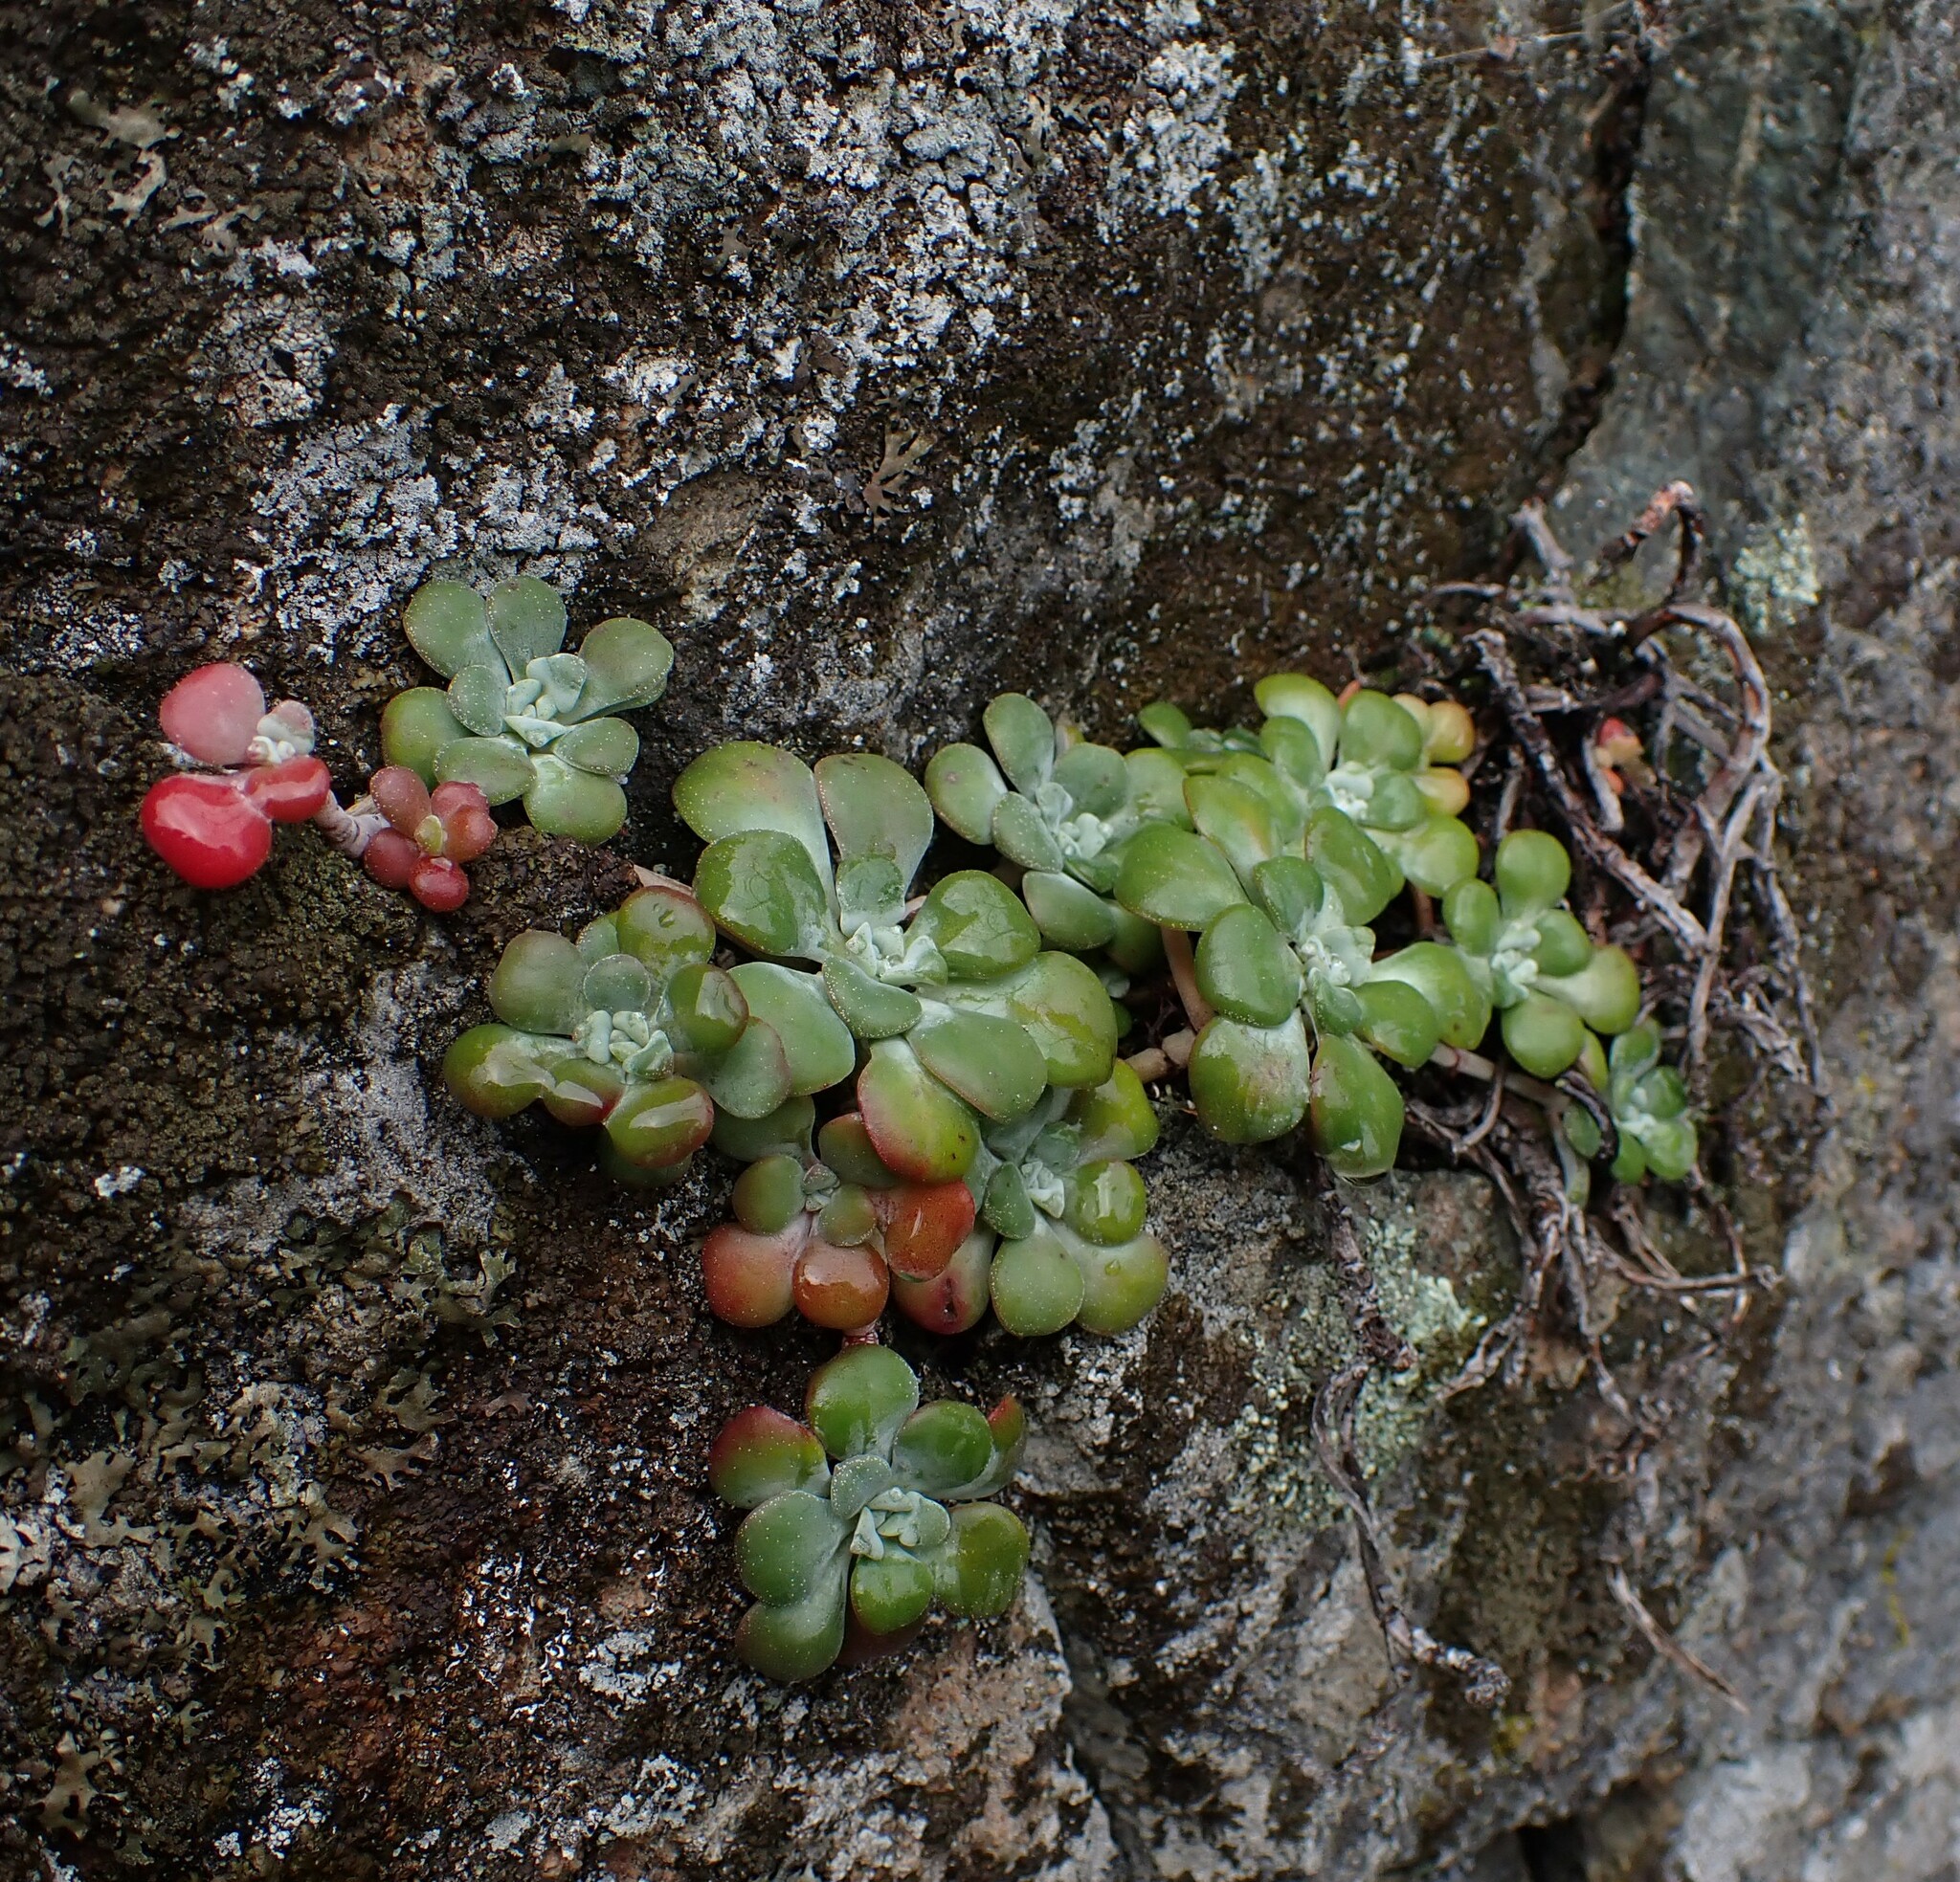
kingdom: Plantae
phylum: Tracheophyta
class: Magnoliopsida
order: Saxifragales
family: Crassulaceae
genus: Sedum
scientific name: Sedum spathulifolium
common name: Colorado stonecrop
